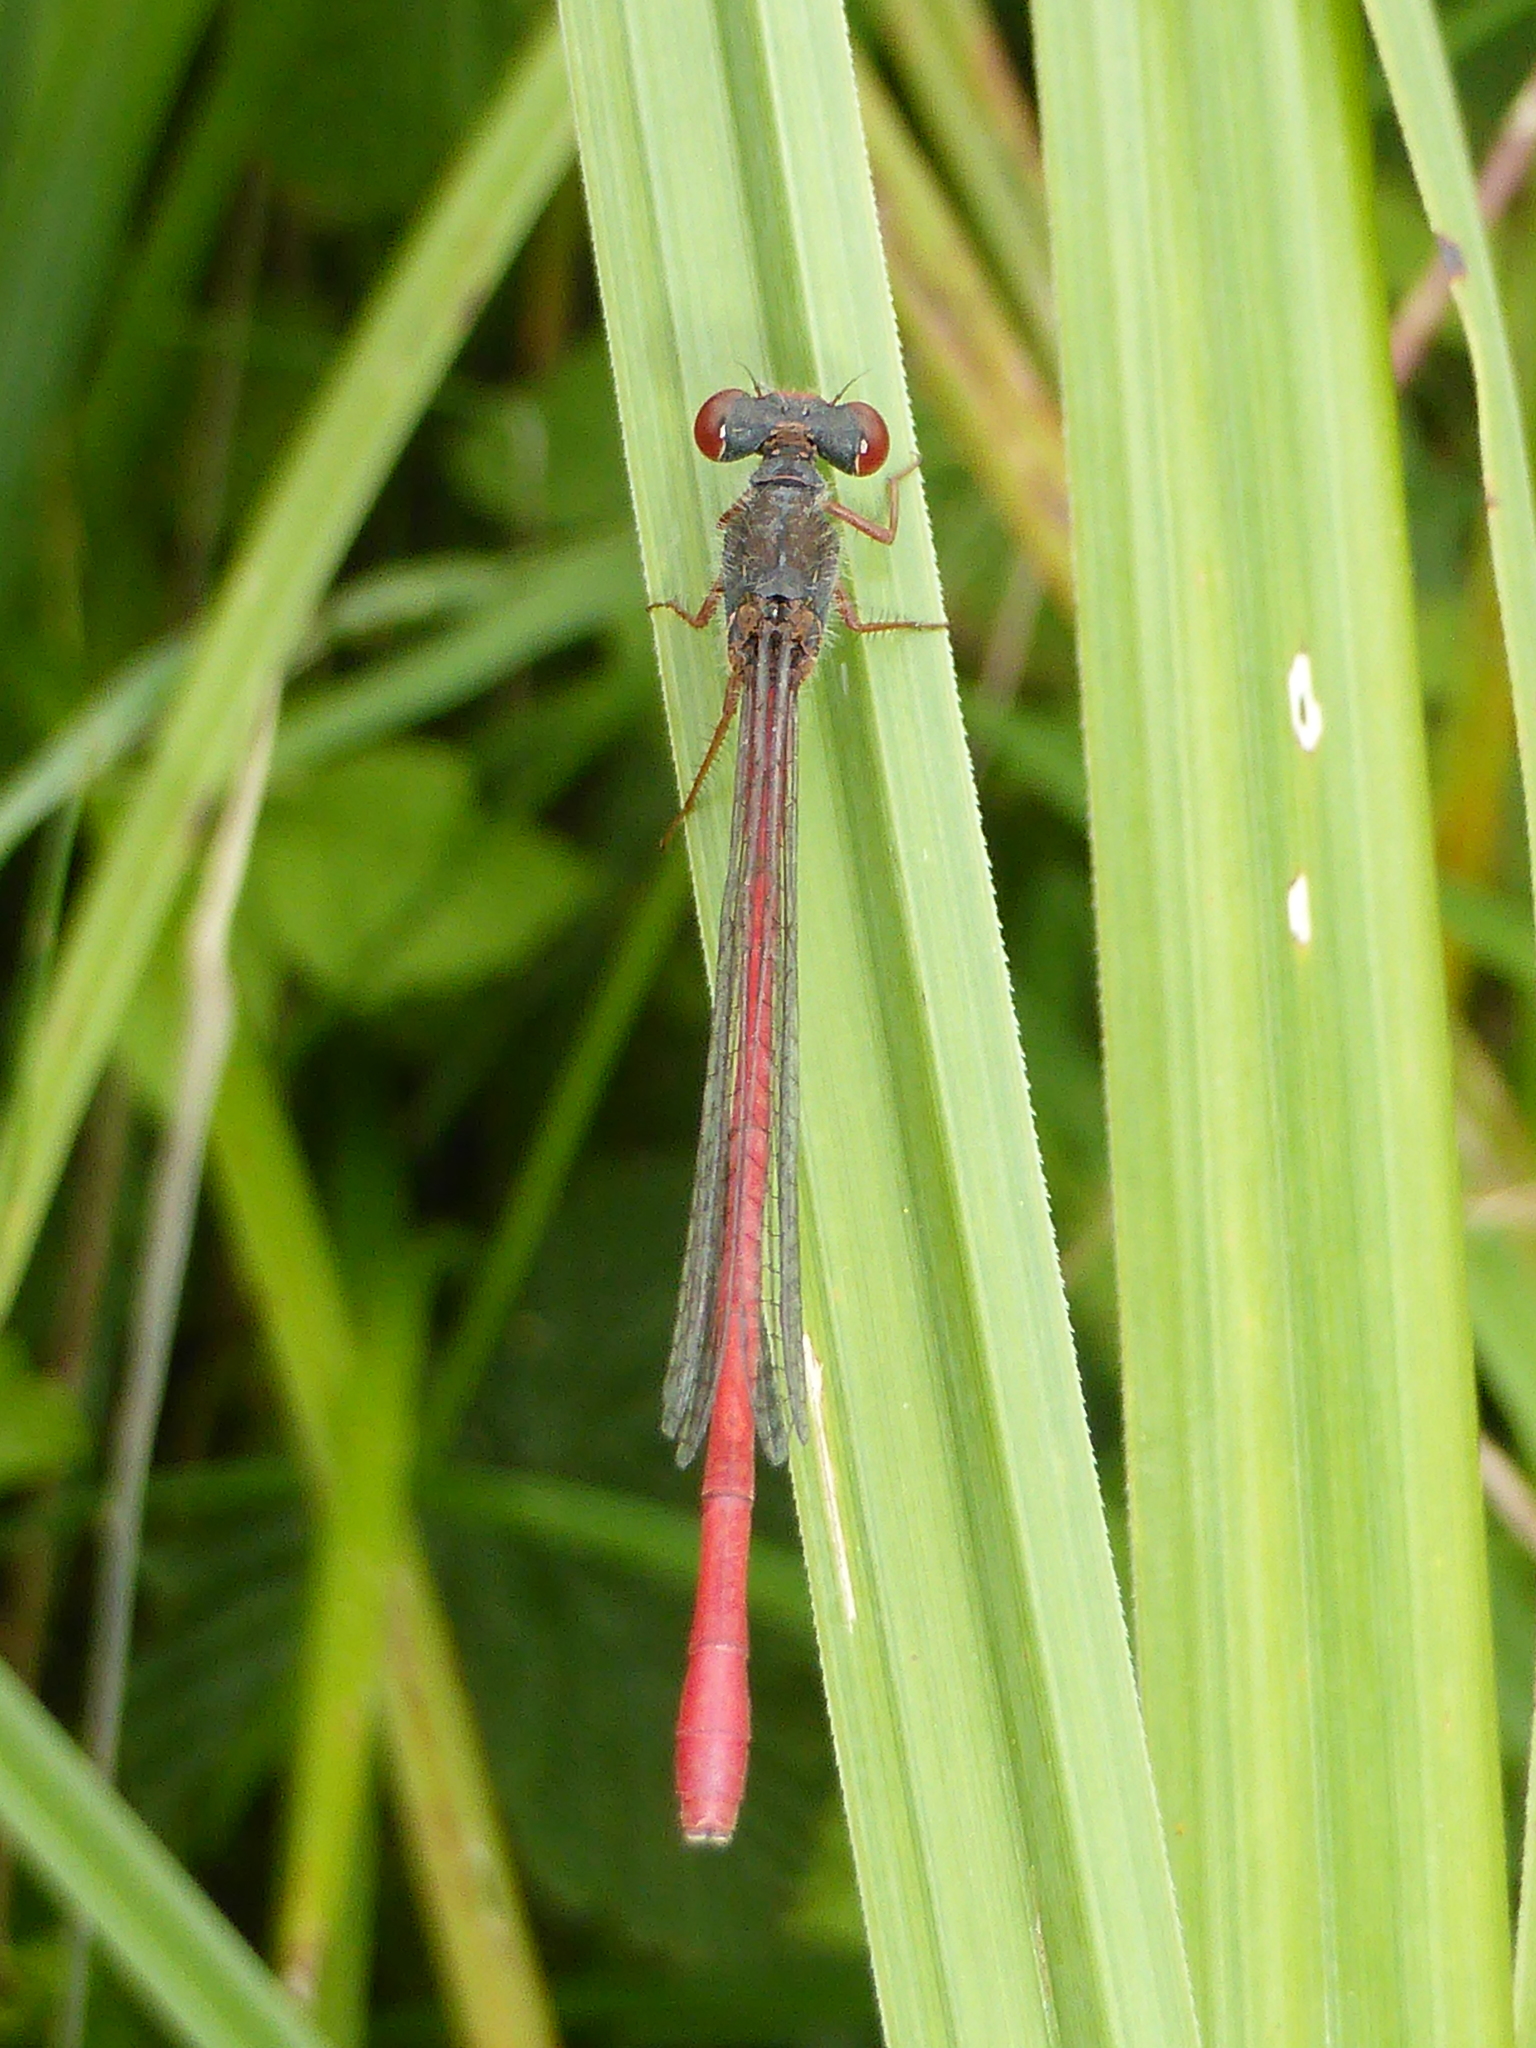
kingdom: Animalia
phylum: Arthropoda
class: Insecta
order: Odonata
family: Coenagrionidae
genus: Ceriagrion
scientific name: Ceriagrion tenellum
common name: Small red damselfly
